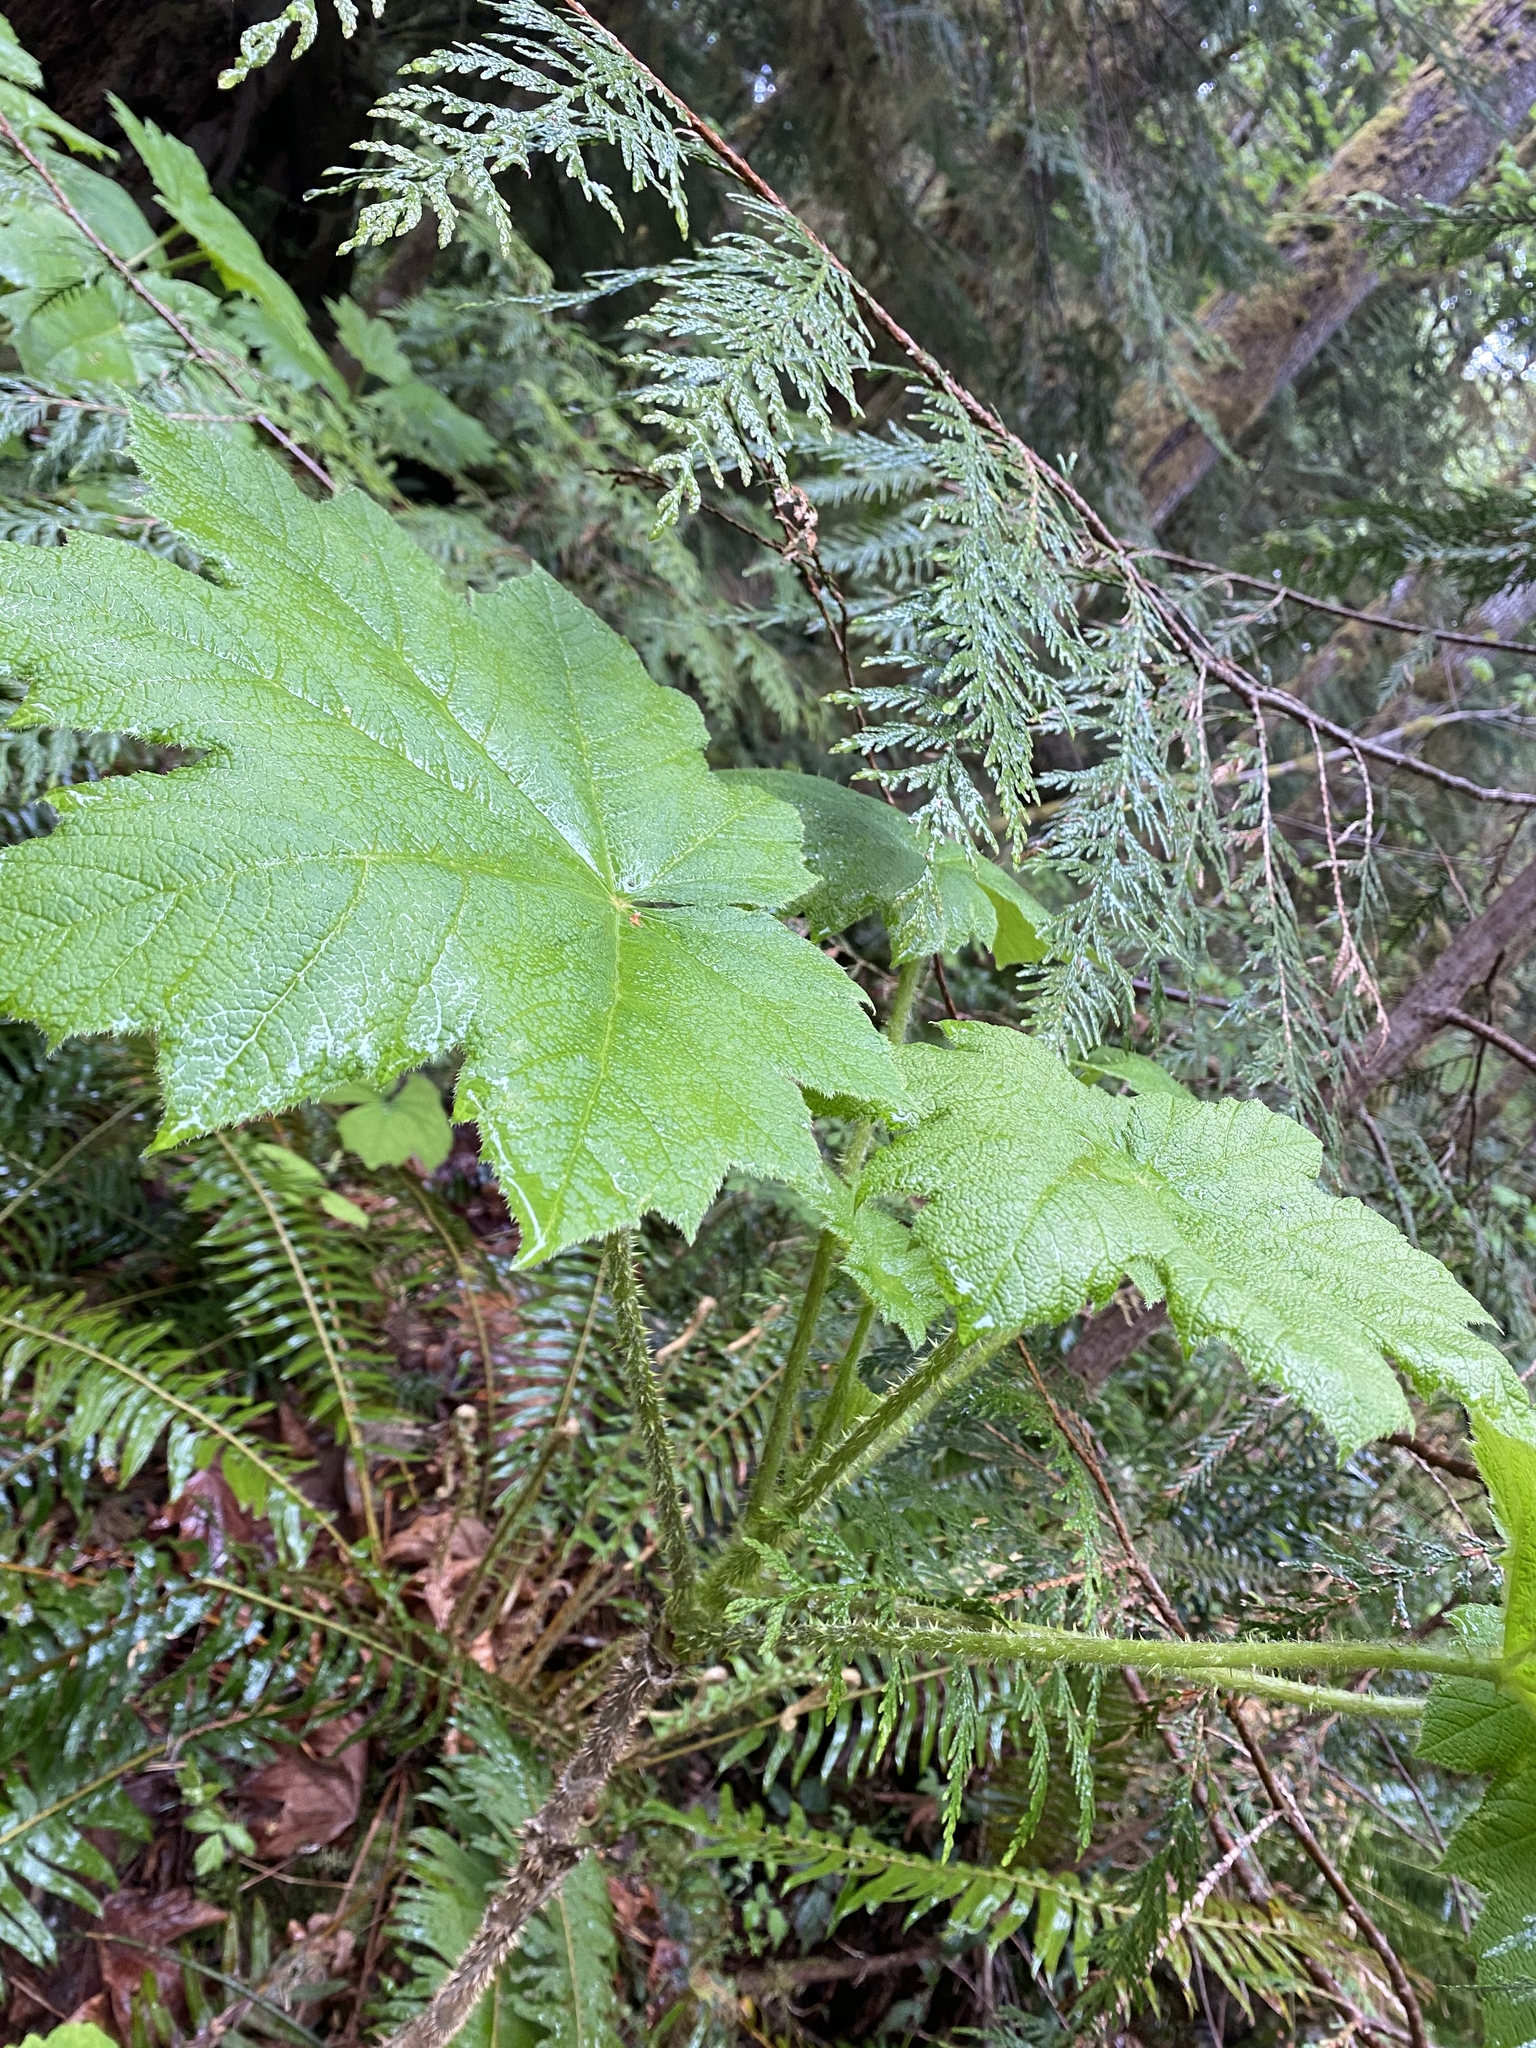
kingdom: Plantae
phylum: Tracheophyta
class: Magnoliopsida
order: Apiales
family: Araliaceae
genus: Oplopanax
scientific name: Oplopanax horridus
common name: Devil's walking-stick
